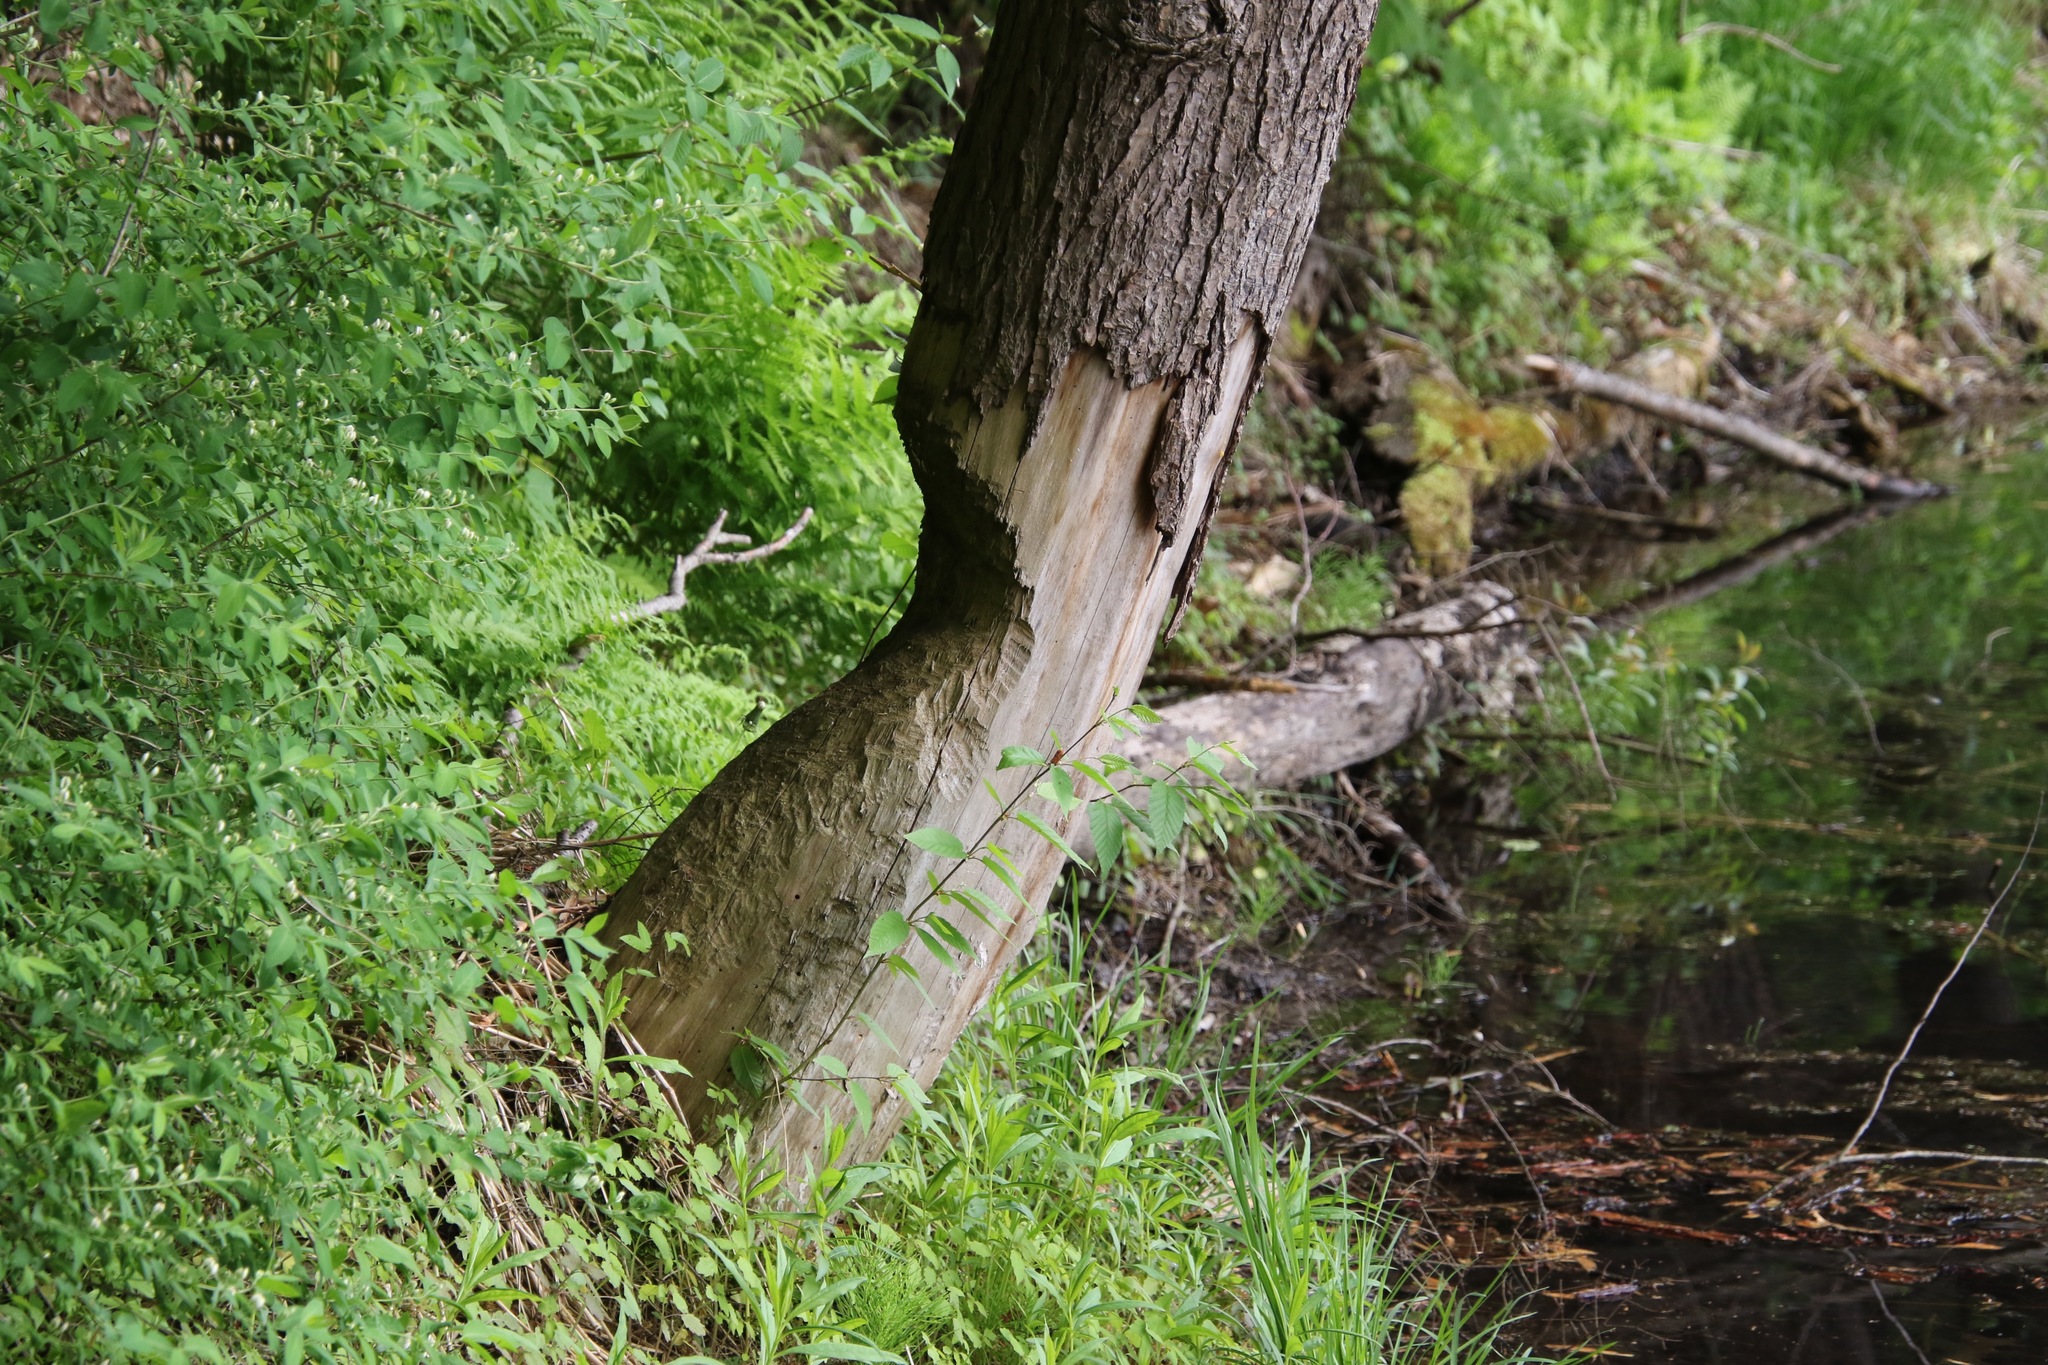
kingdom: Animalia
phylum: Chordata
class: Mammalia
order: Rodentia
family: Castoridae
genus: Castor
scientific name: Castor canadensis
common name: American beaver
